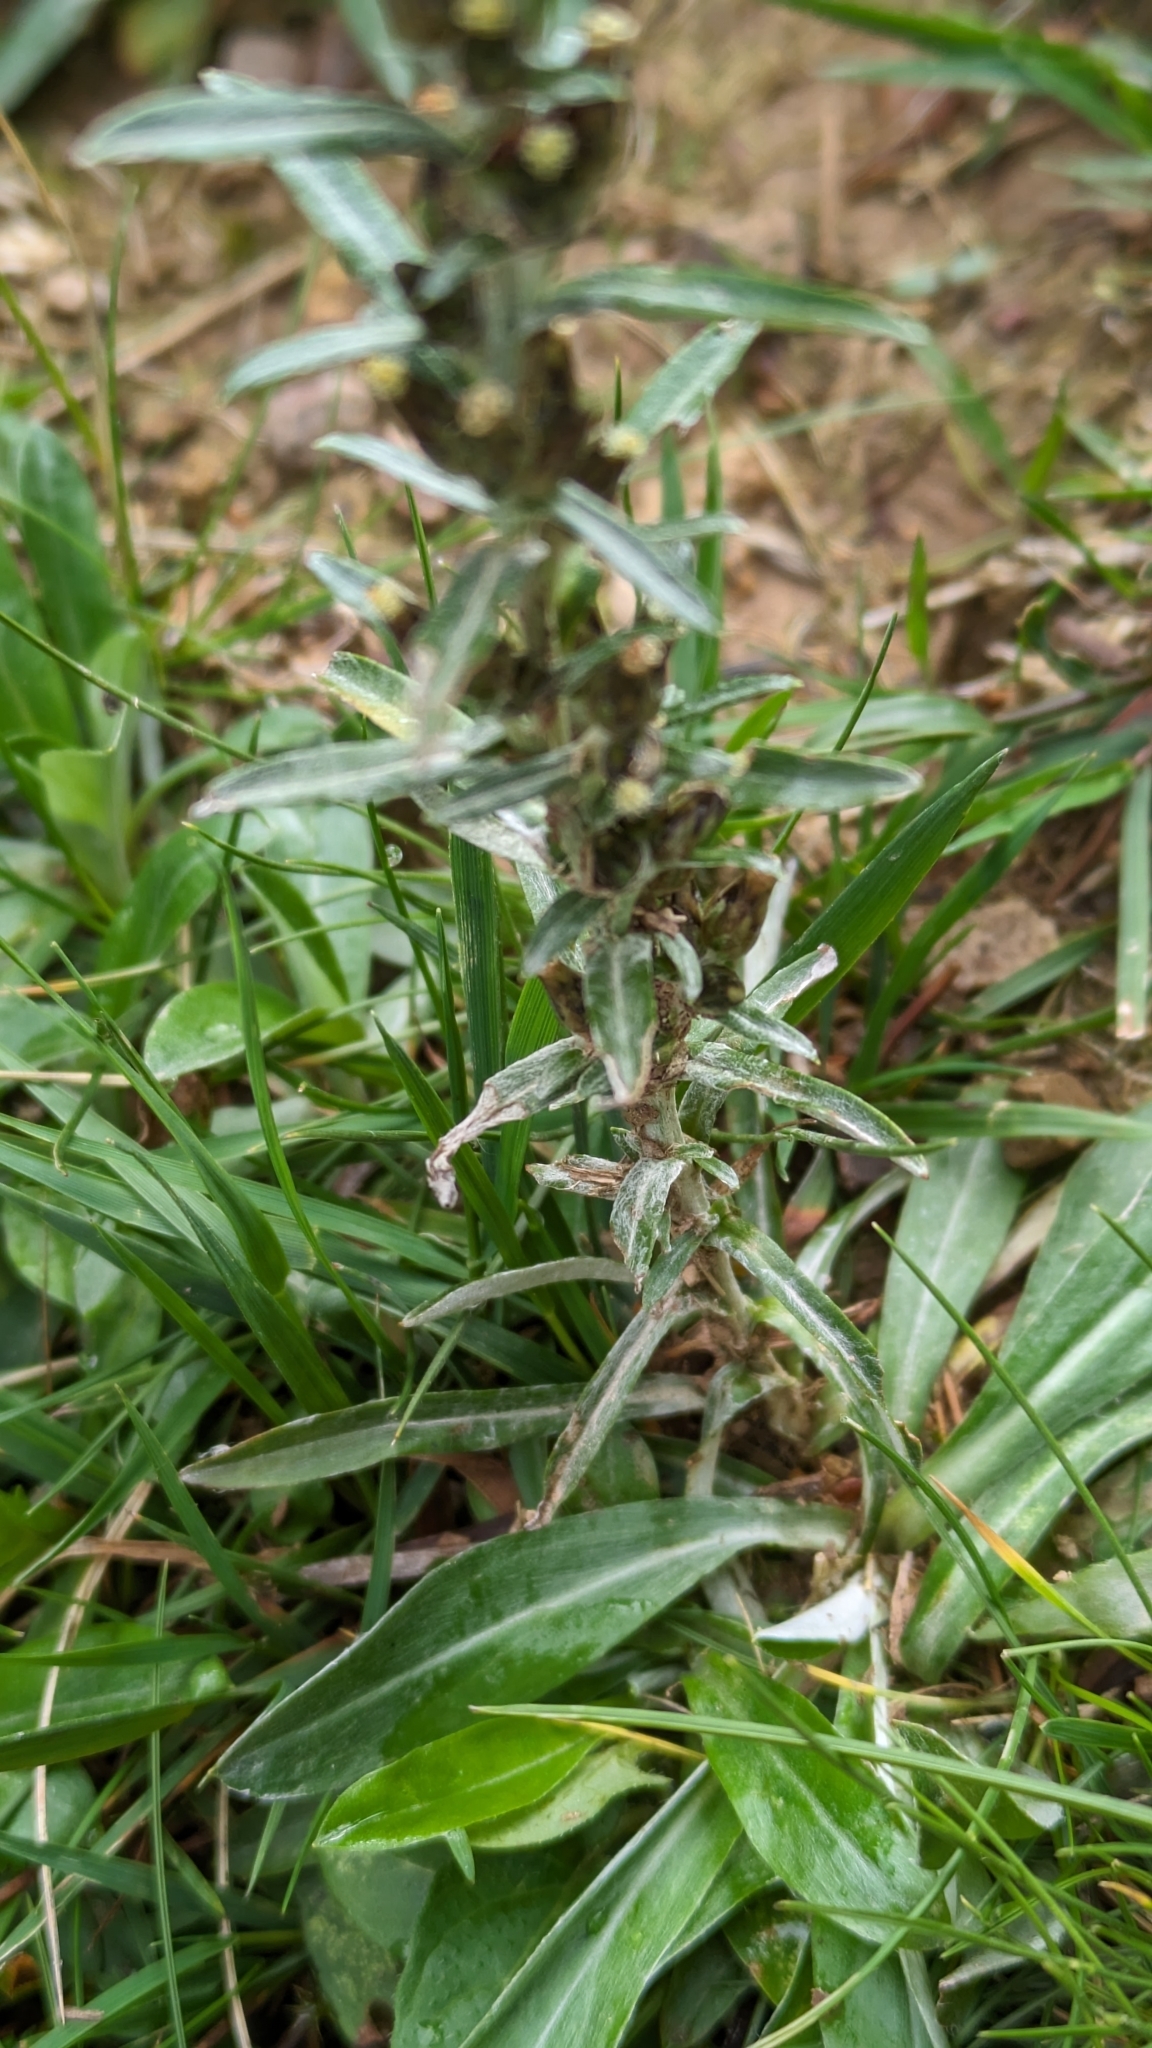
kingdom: Plantae
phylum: Tracheophyta
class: Magnoliopsida
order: Asterales
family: Asteraceae
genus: Omalotheca
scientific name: Omalotheca sylvatica
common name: Heath cudweed
